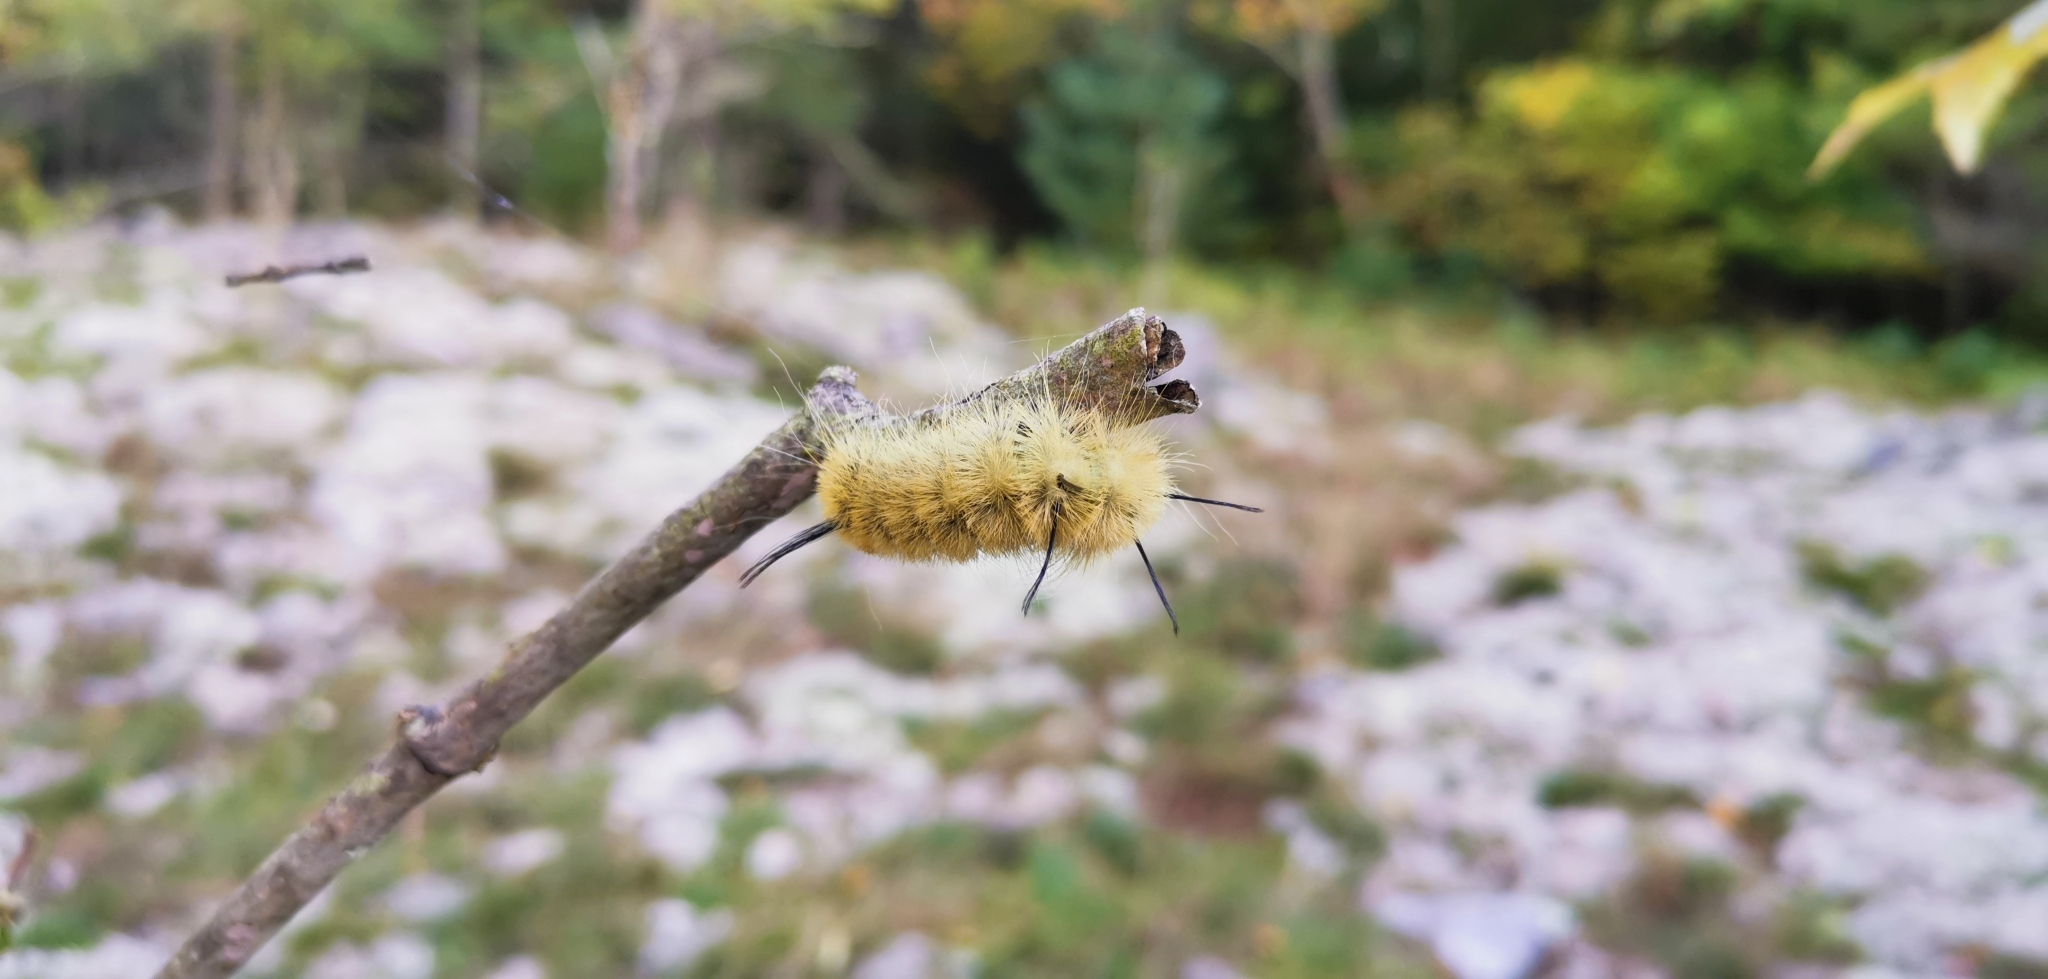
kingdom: Animalia
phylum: Arthropoda
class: Insecta
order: Lepidoptera
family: Noctuidae
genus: Acronicta
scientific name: Acronicta americana
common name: American dagger
